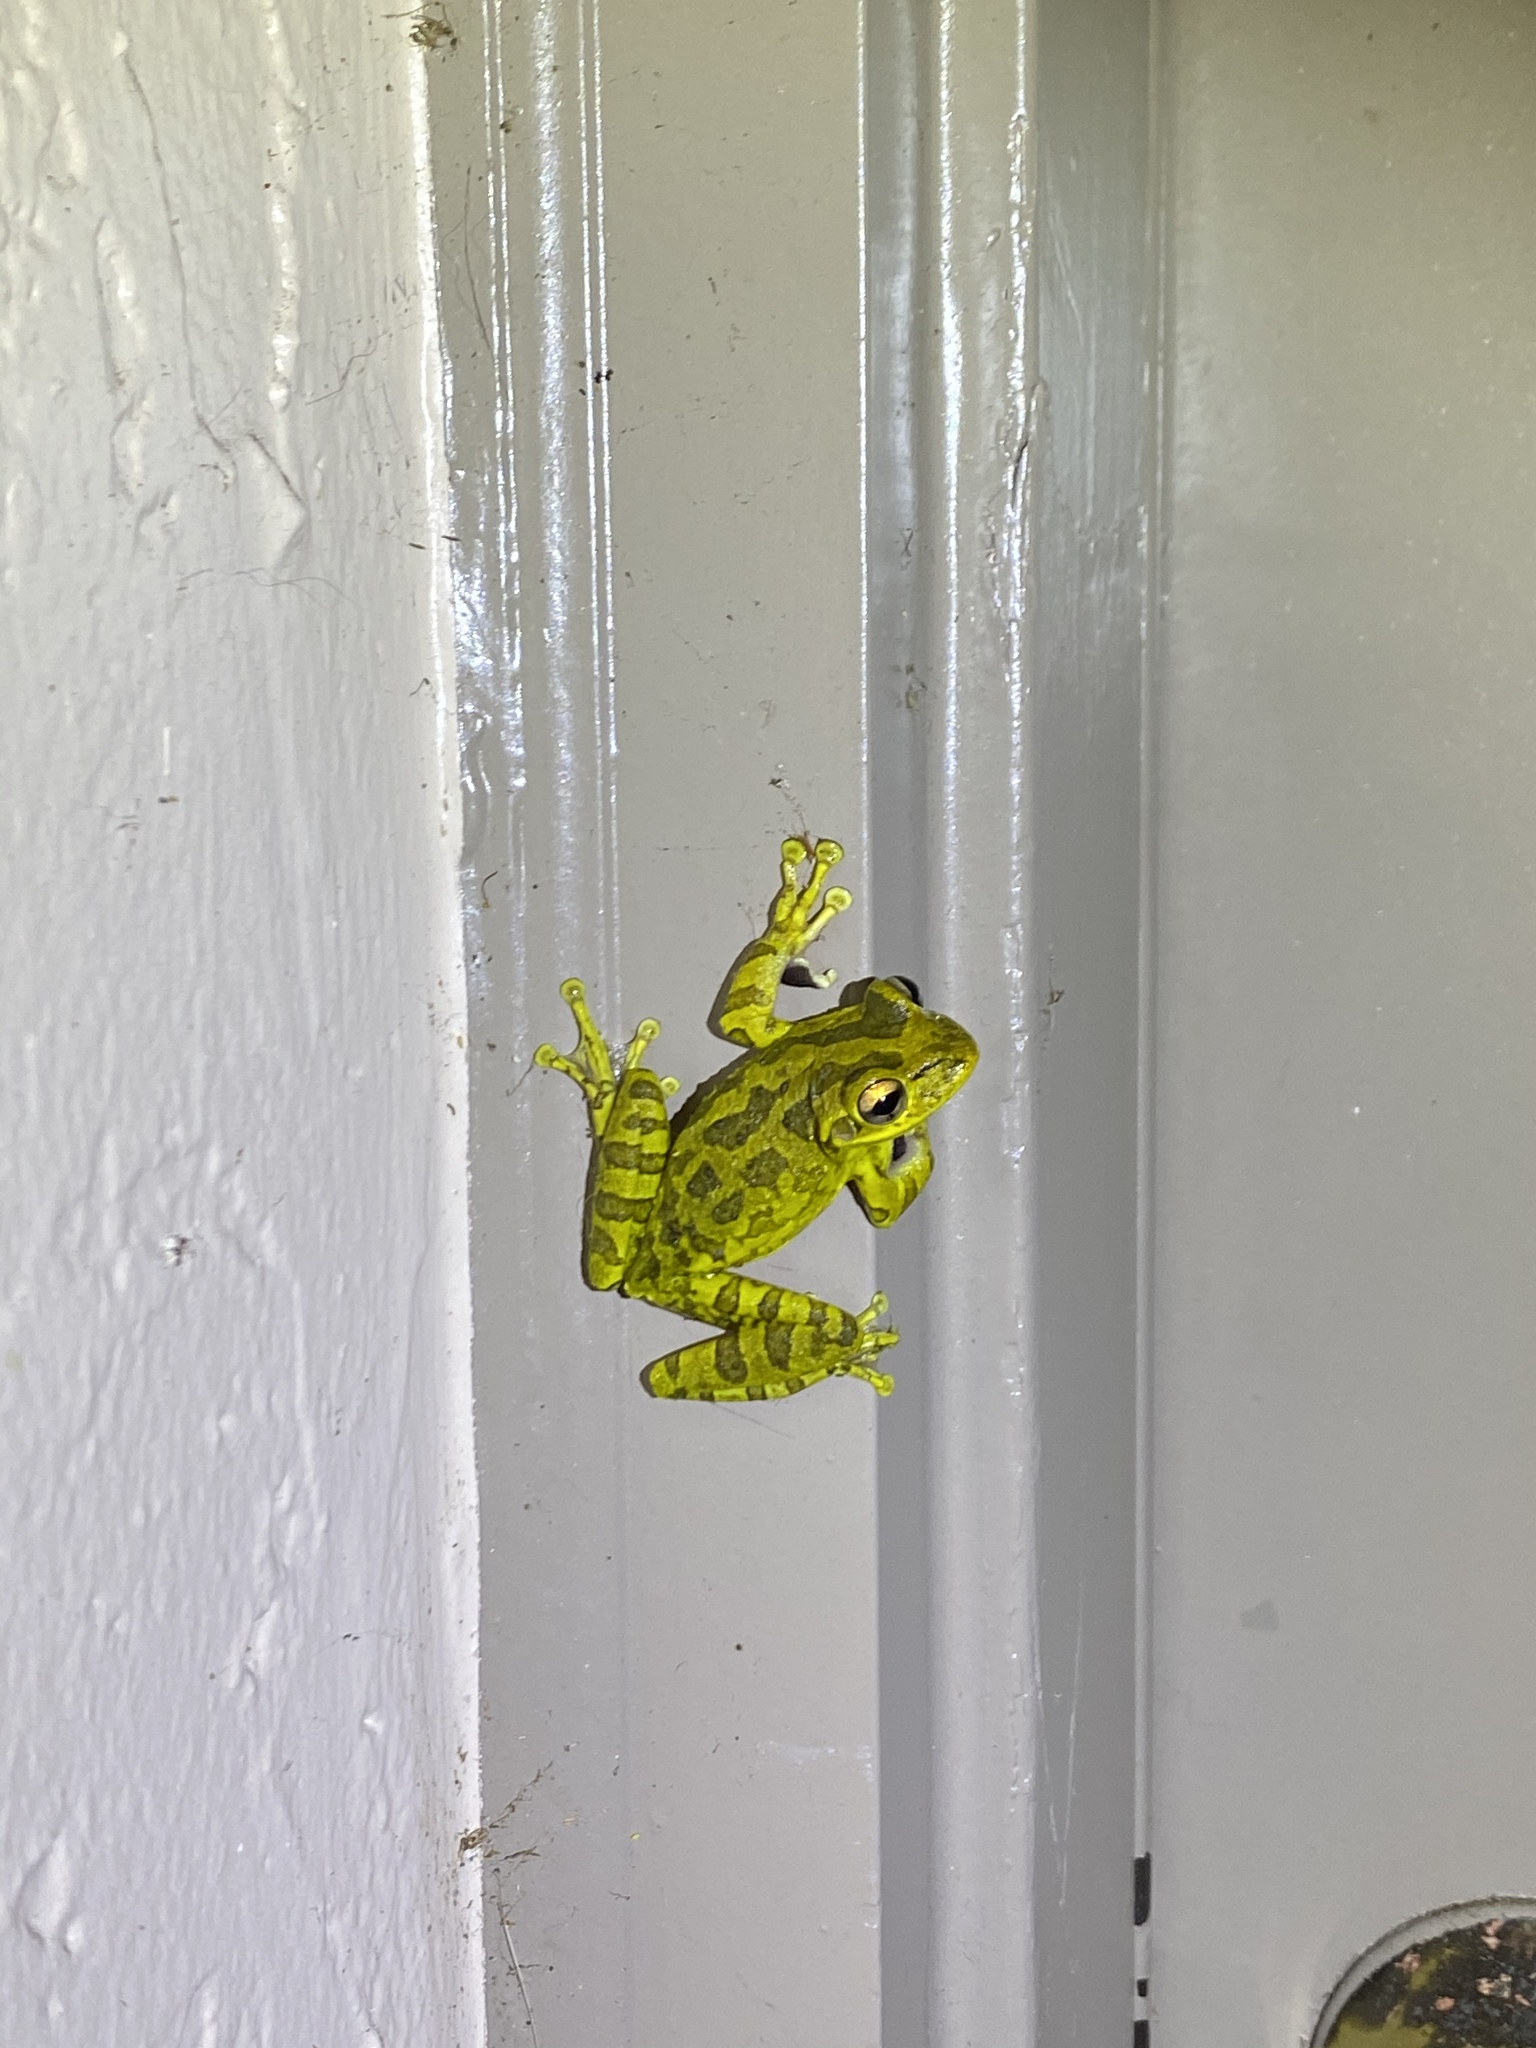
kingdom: Animalia
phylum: Chordata
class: Amphibia
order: Anura
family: Hylidae
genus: Osteopilus
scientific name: Osteopilus septentrionalis
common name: Cuban treefrog
